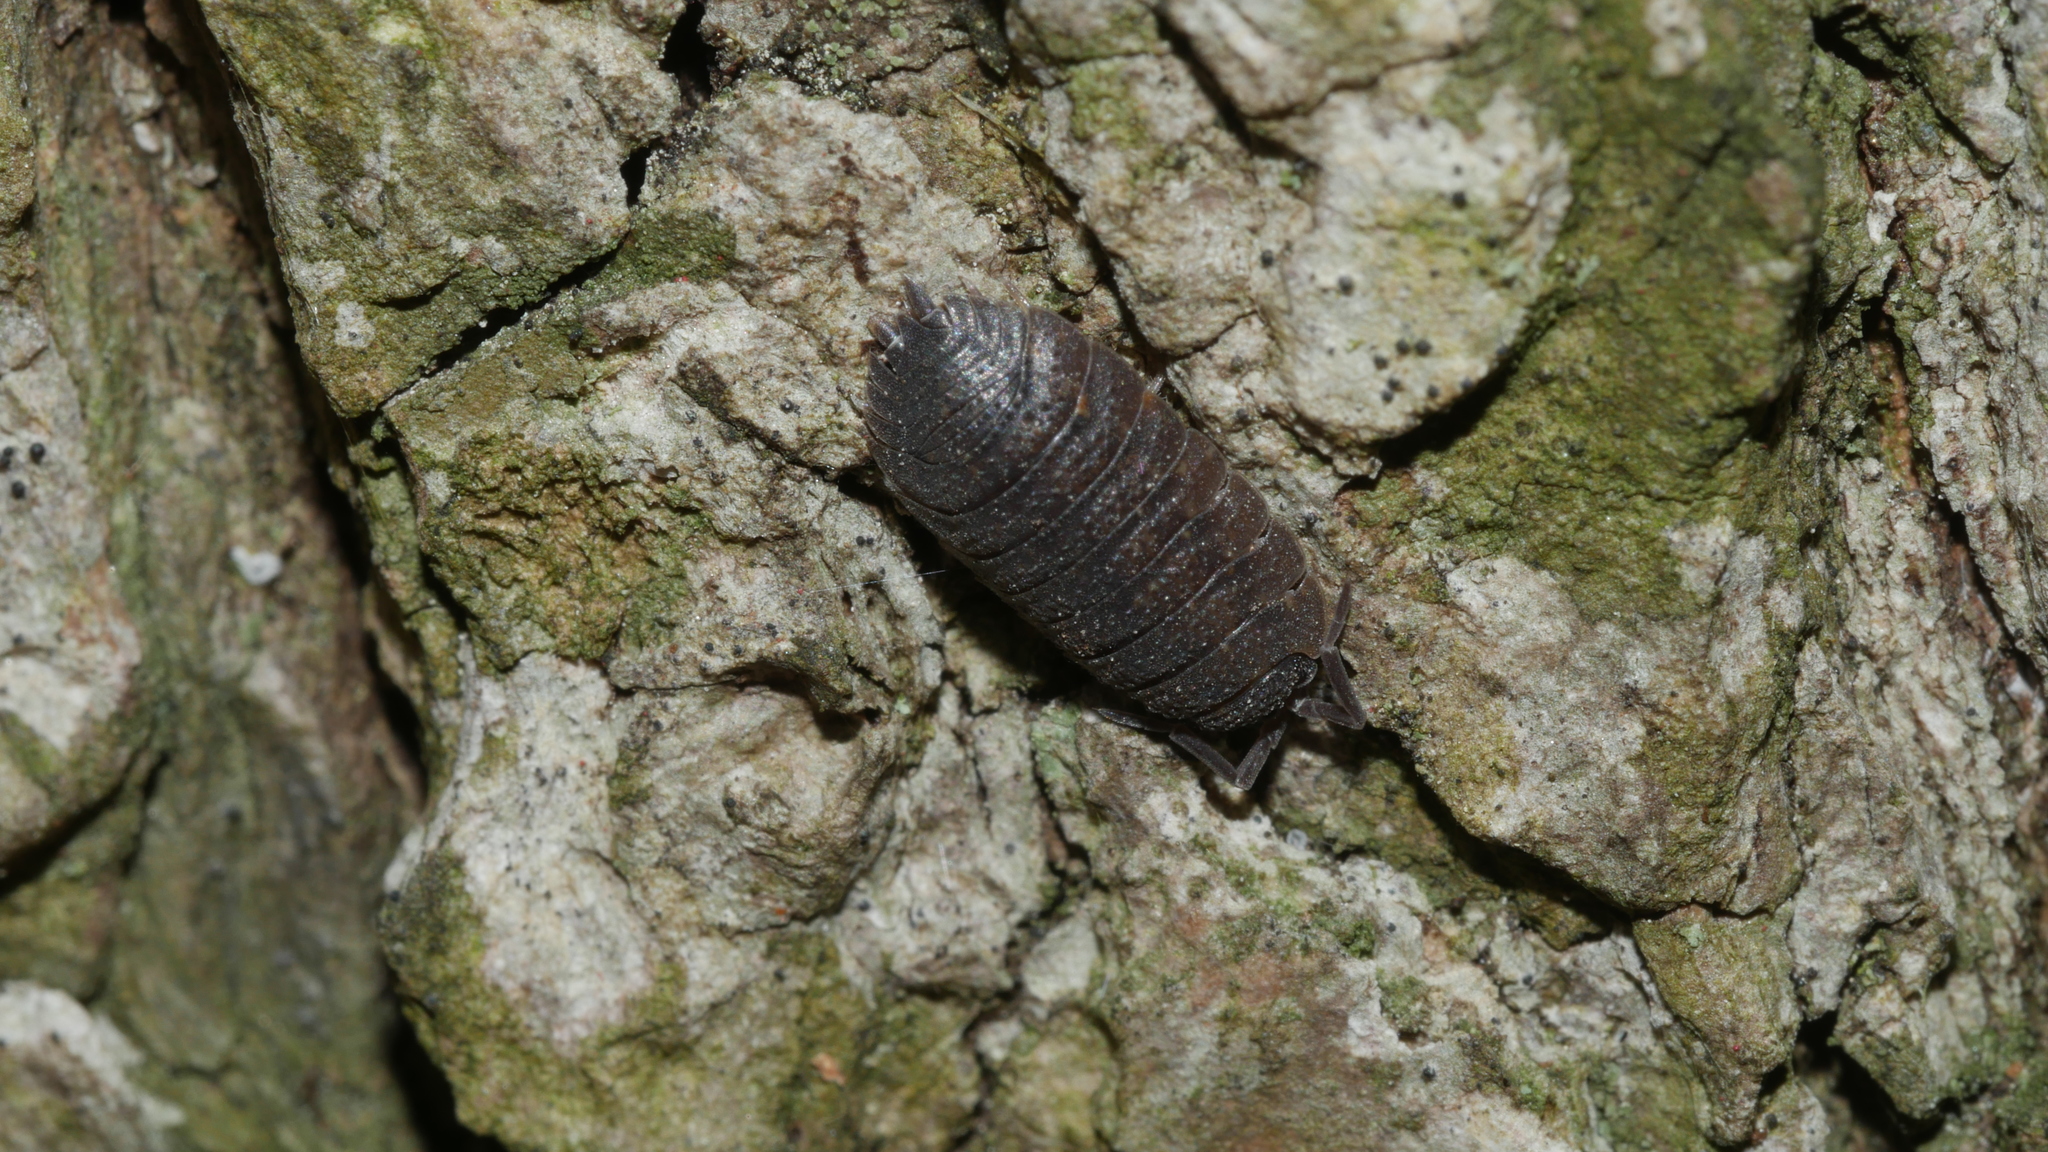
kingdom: Animalia
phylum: Arthropoda
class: Malacostraca
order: Isopoda
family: Porcellionidae
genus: Porcellio
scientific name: Porcellio scaber
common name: Common rough woodlouse
